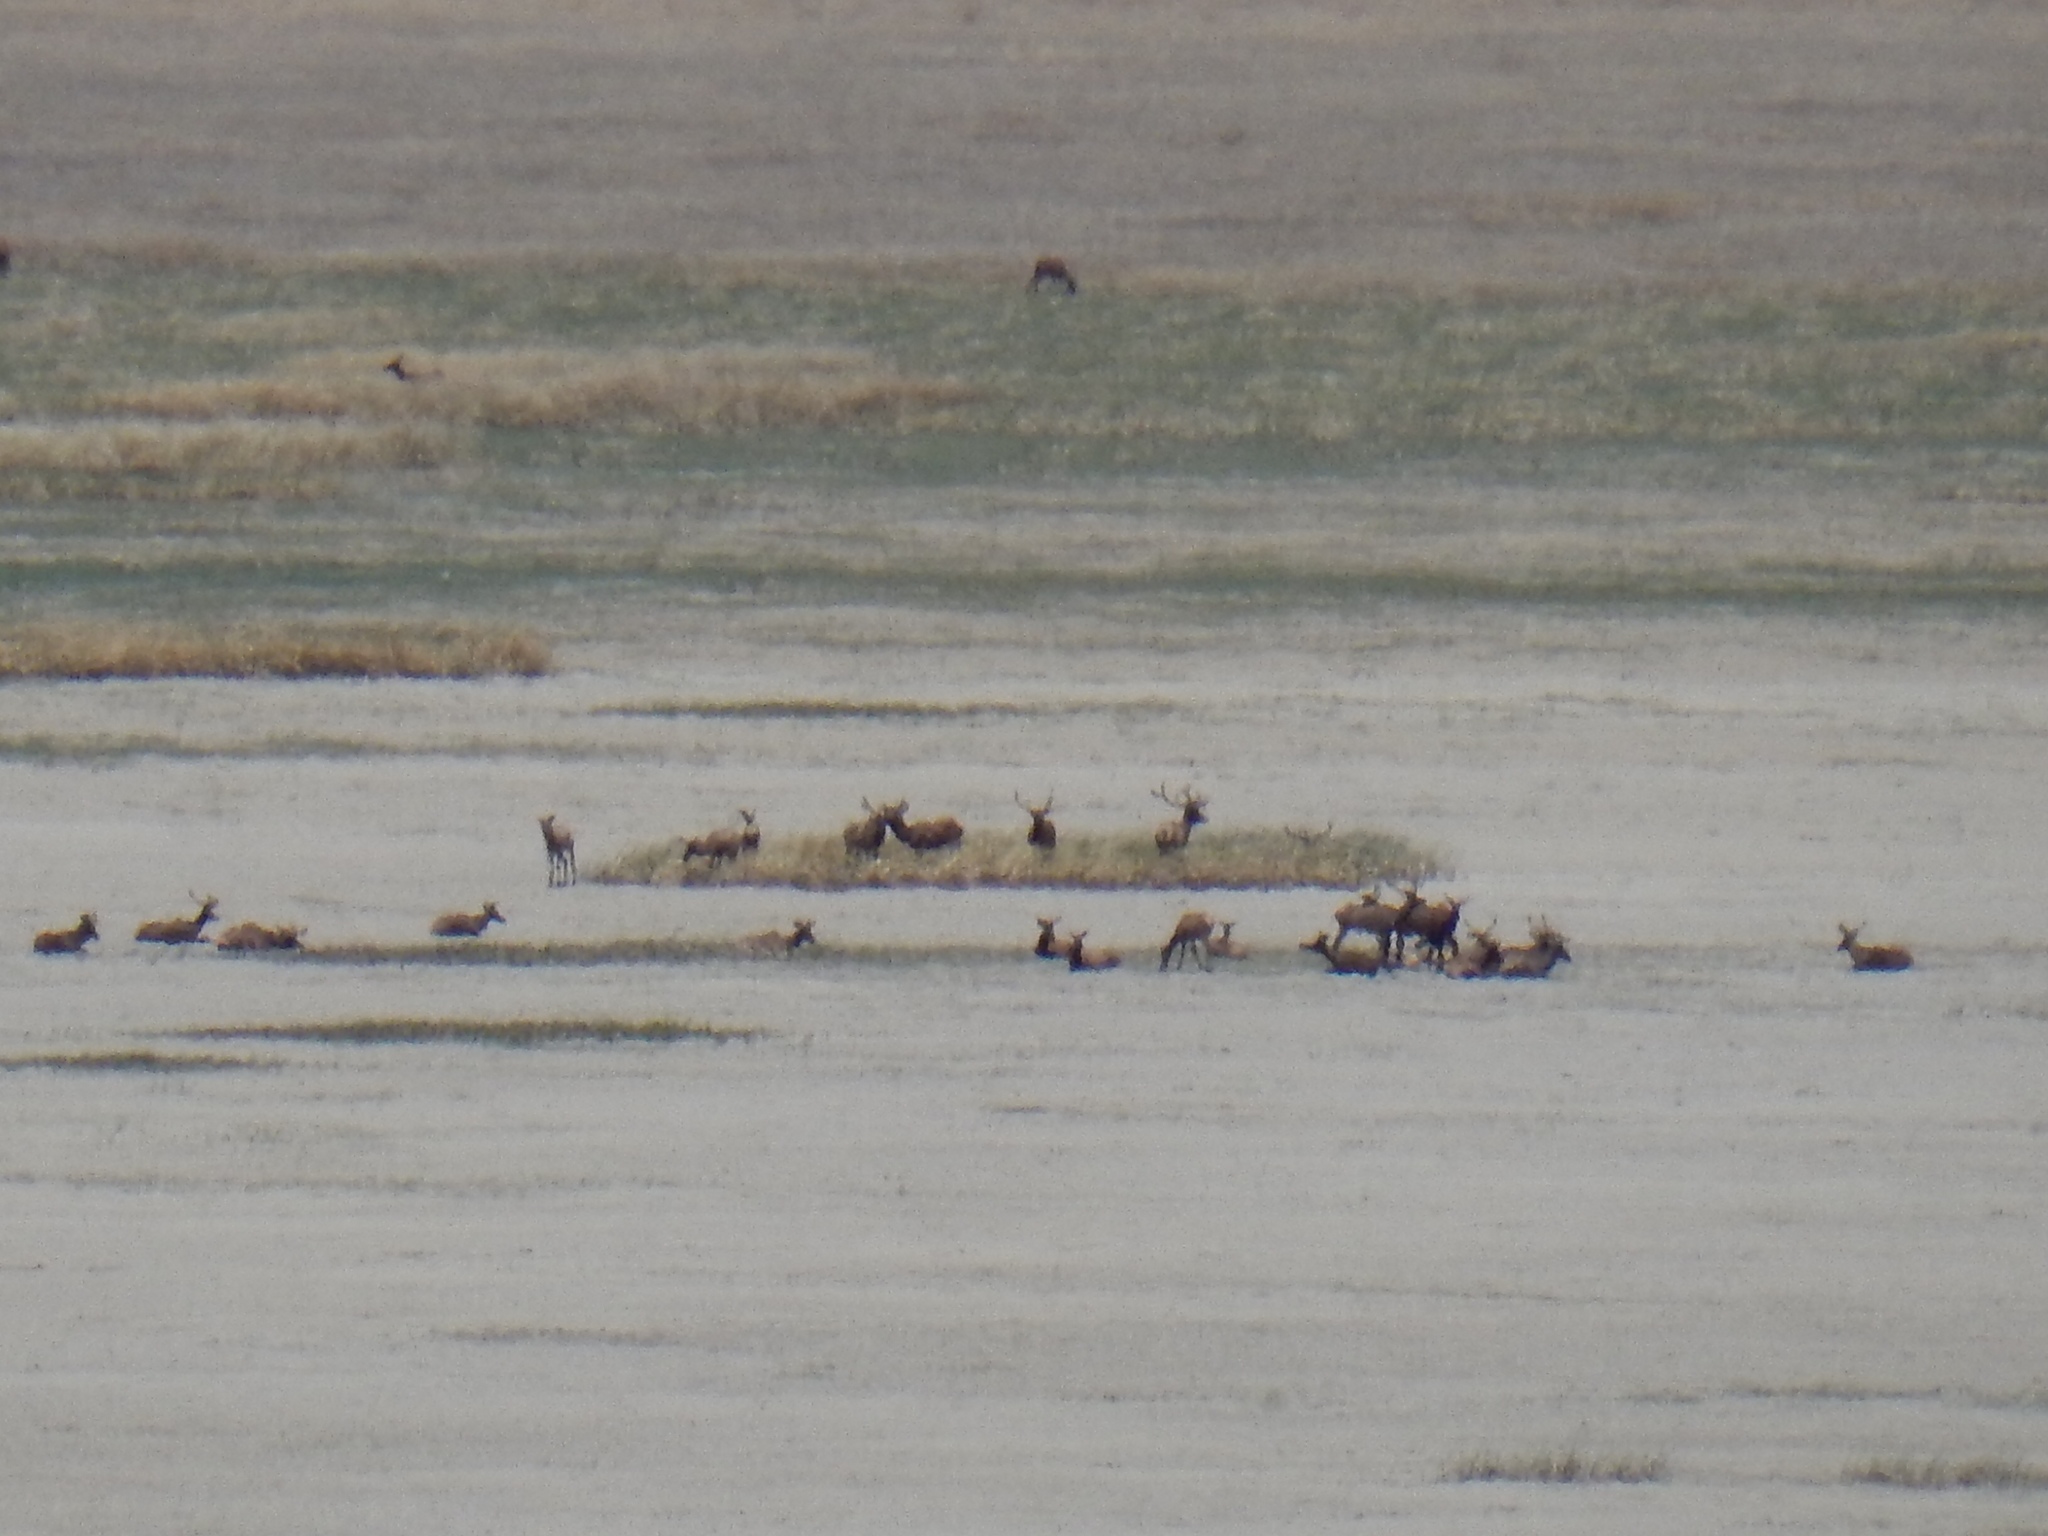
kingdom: Animalia
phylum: Chordata
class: Mammalia
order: Artiodactyla
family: Cervidae
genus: Cervus
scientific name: Cervus elaphus
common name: Red deer
